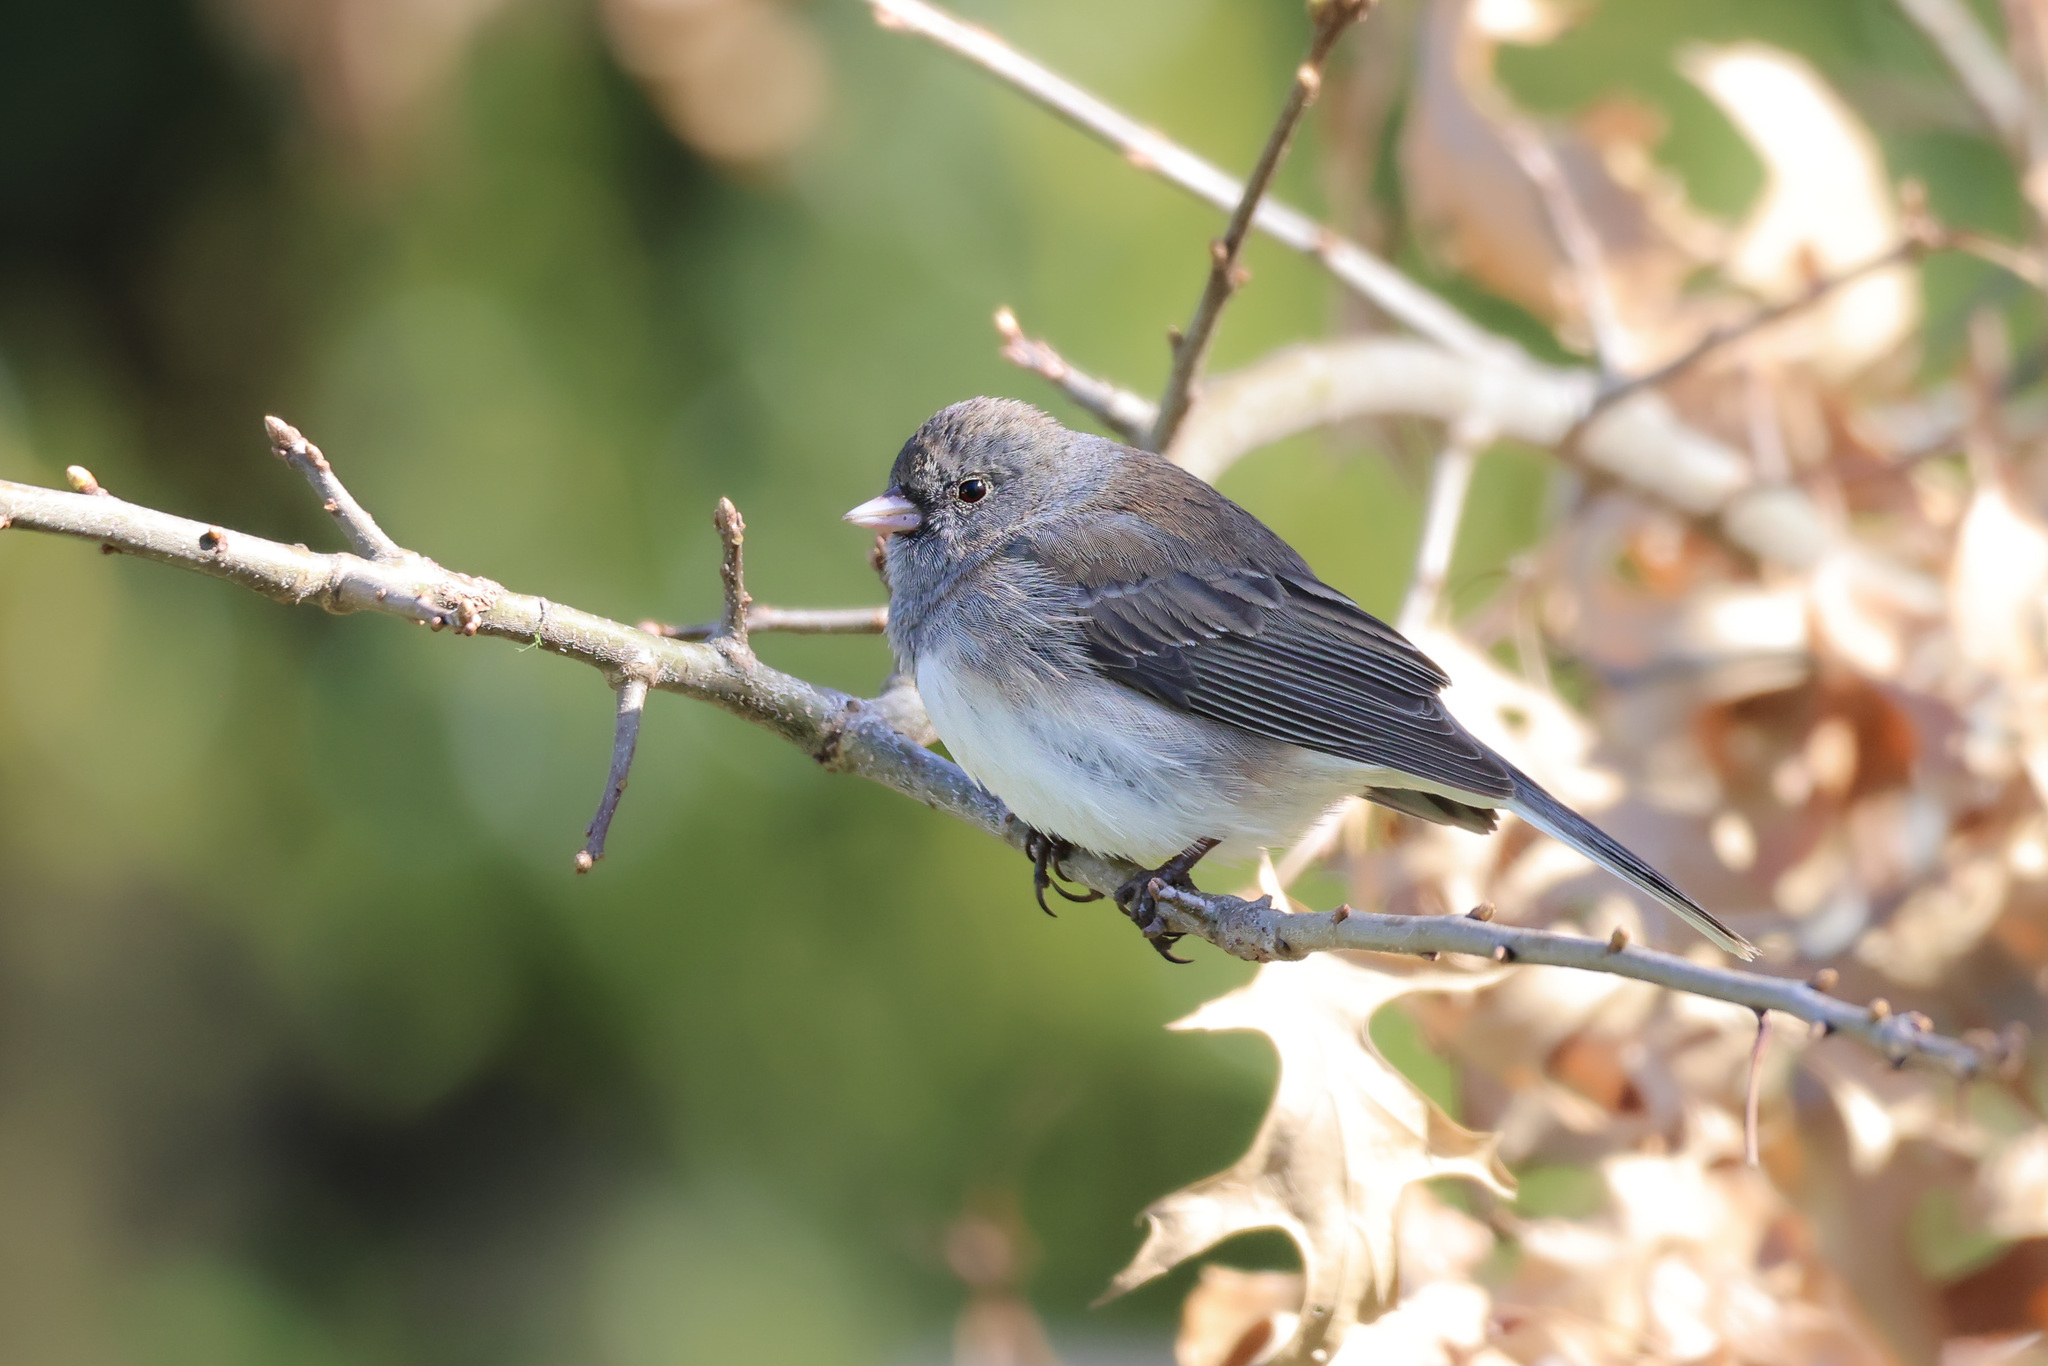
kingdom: Animalia
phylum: Chordata
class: Aves
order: Passeriformes
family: Passerellidae
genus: Junco
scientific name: Junco hyemalis
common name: Dark-eyed junco
